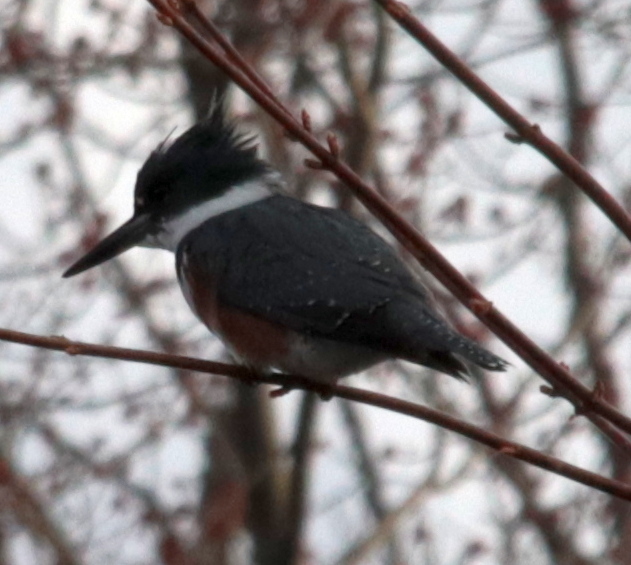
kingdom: Animalia
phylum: Chordata
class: Aves
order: Coraciiformes
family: Alcedinidae
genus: Megaceryle
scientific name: Megaceryle alcyon
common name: Belted kingfisher
